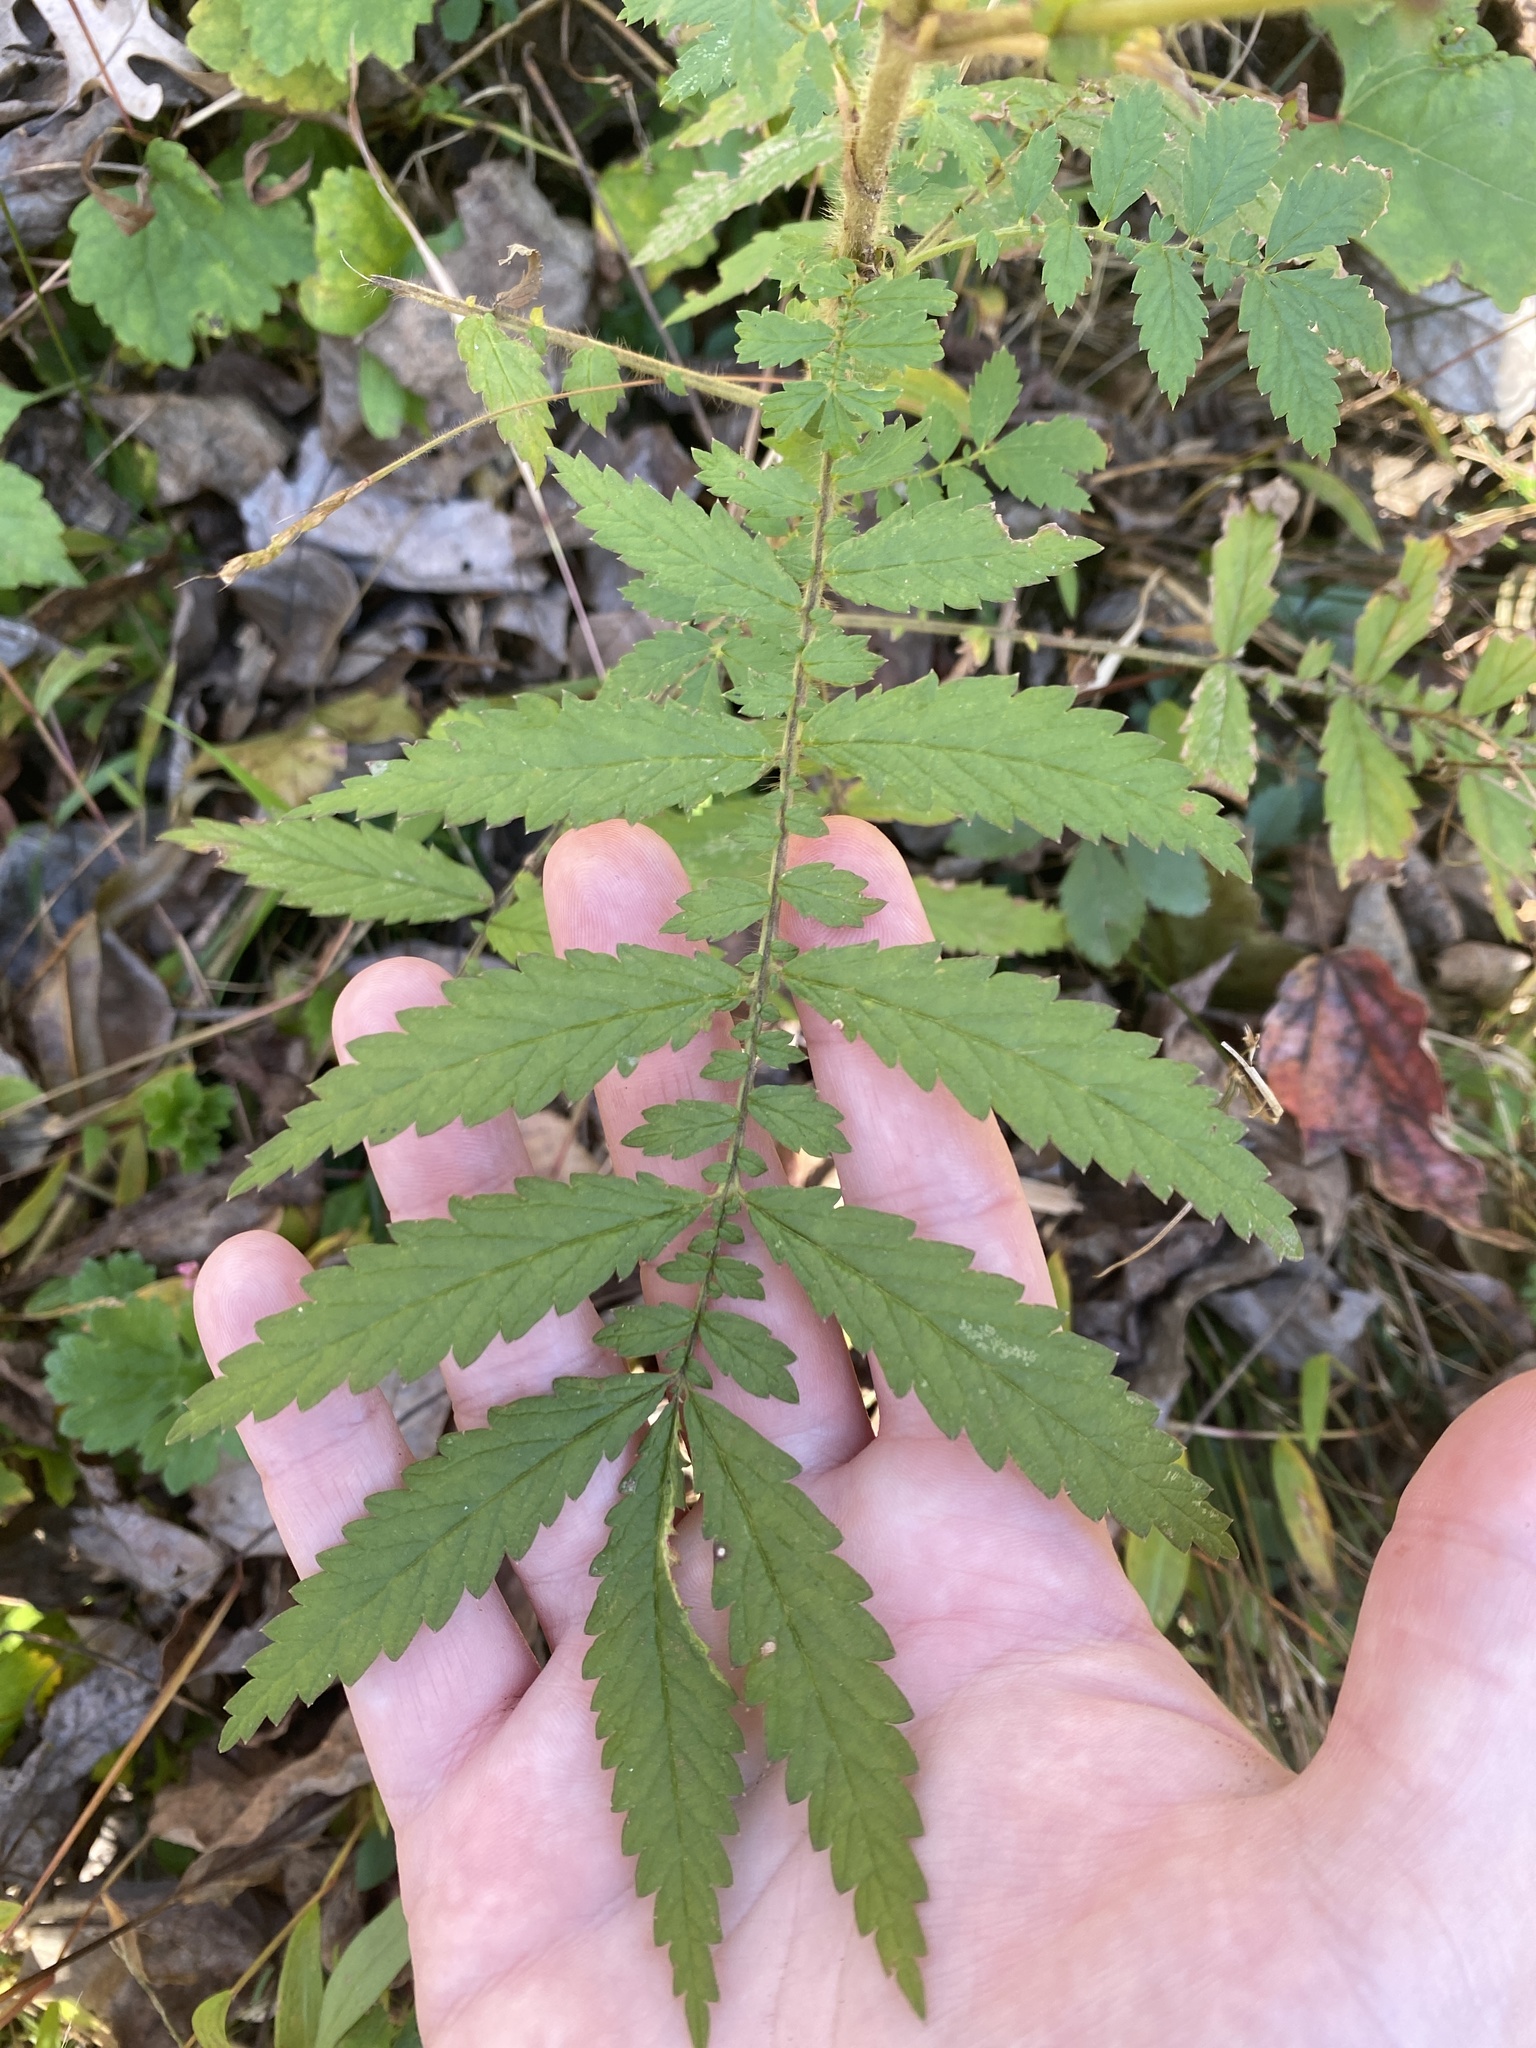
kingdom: Plantae
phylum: Tracheophyta
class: Magnoliopsida
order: Rosales
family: Rosaceae
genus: Agrimonia
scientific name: Agrimonia parviflora
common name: Harvest-lice
